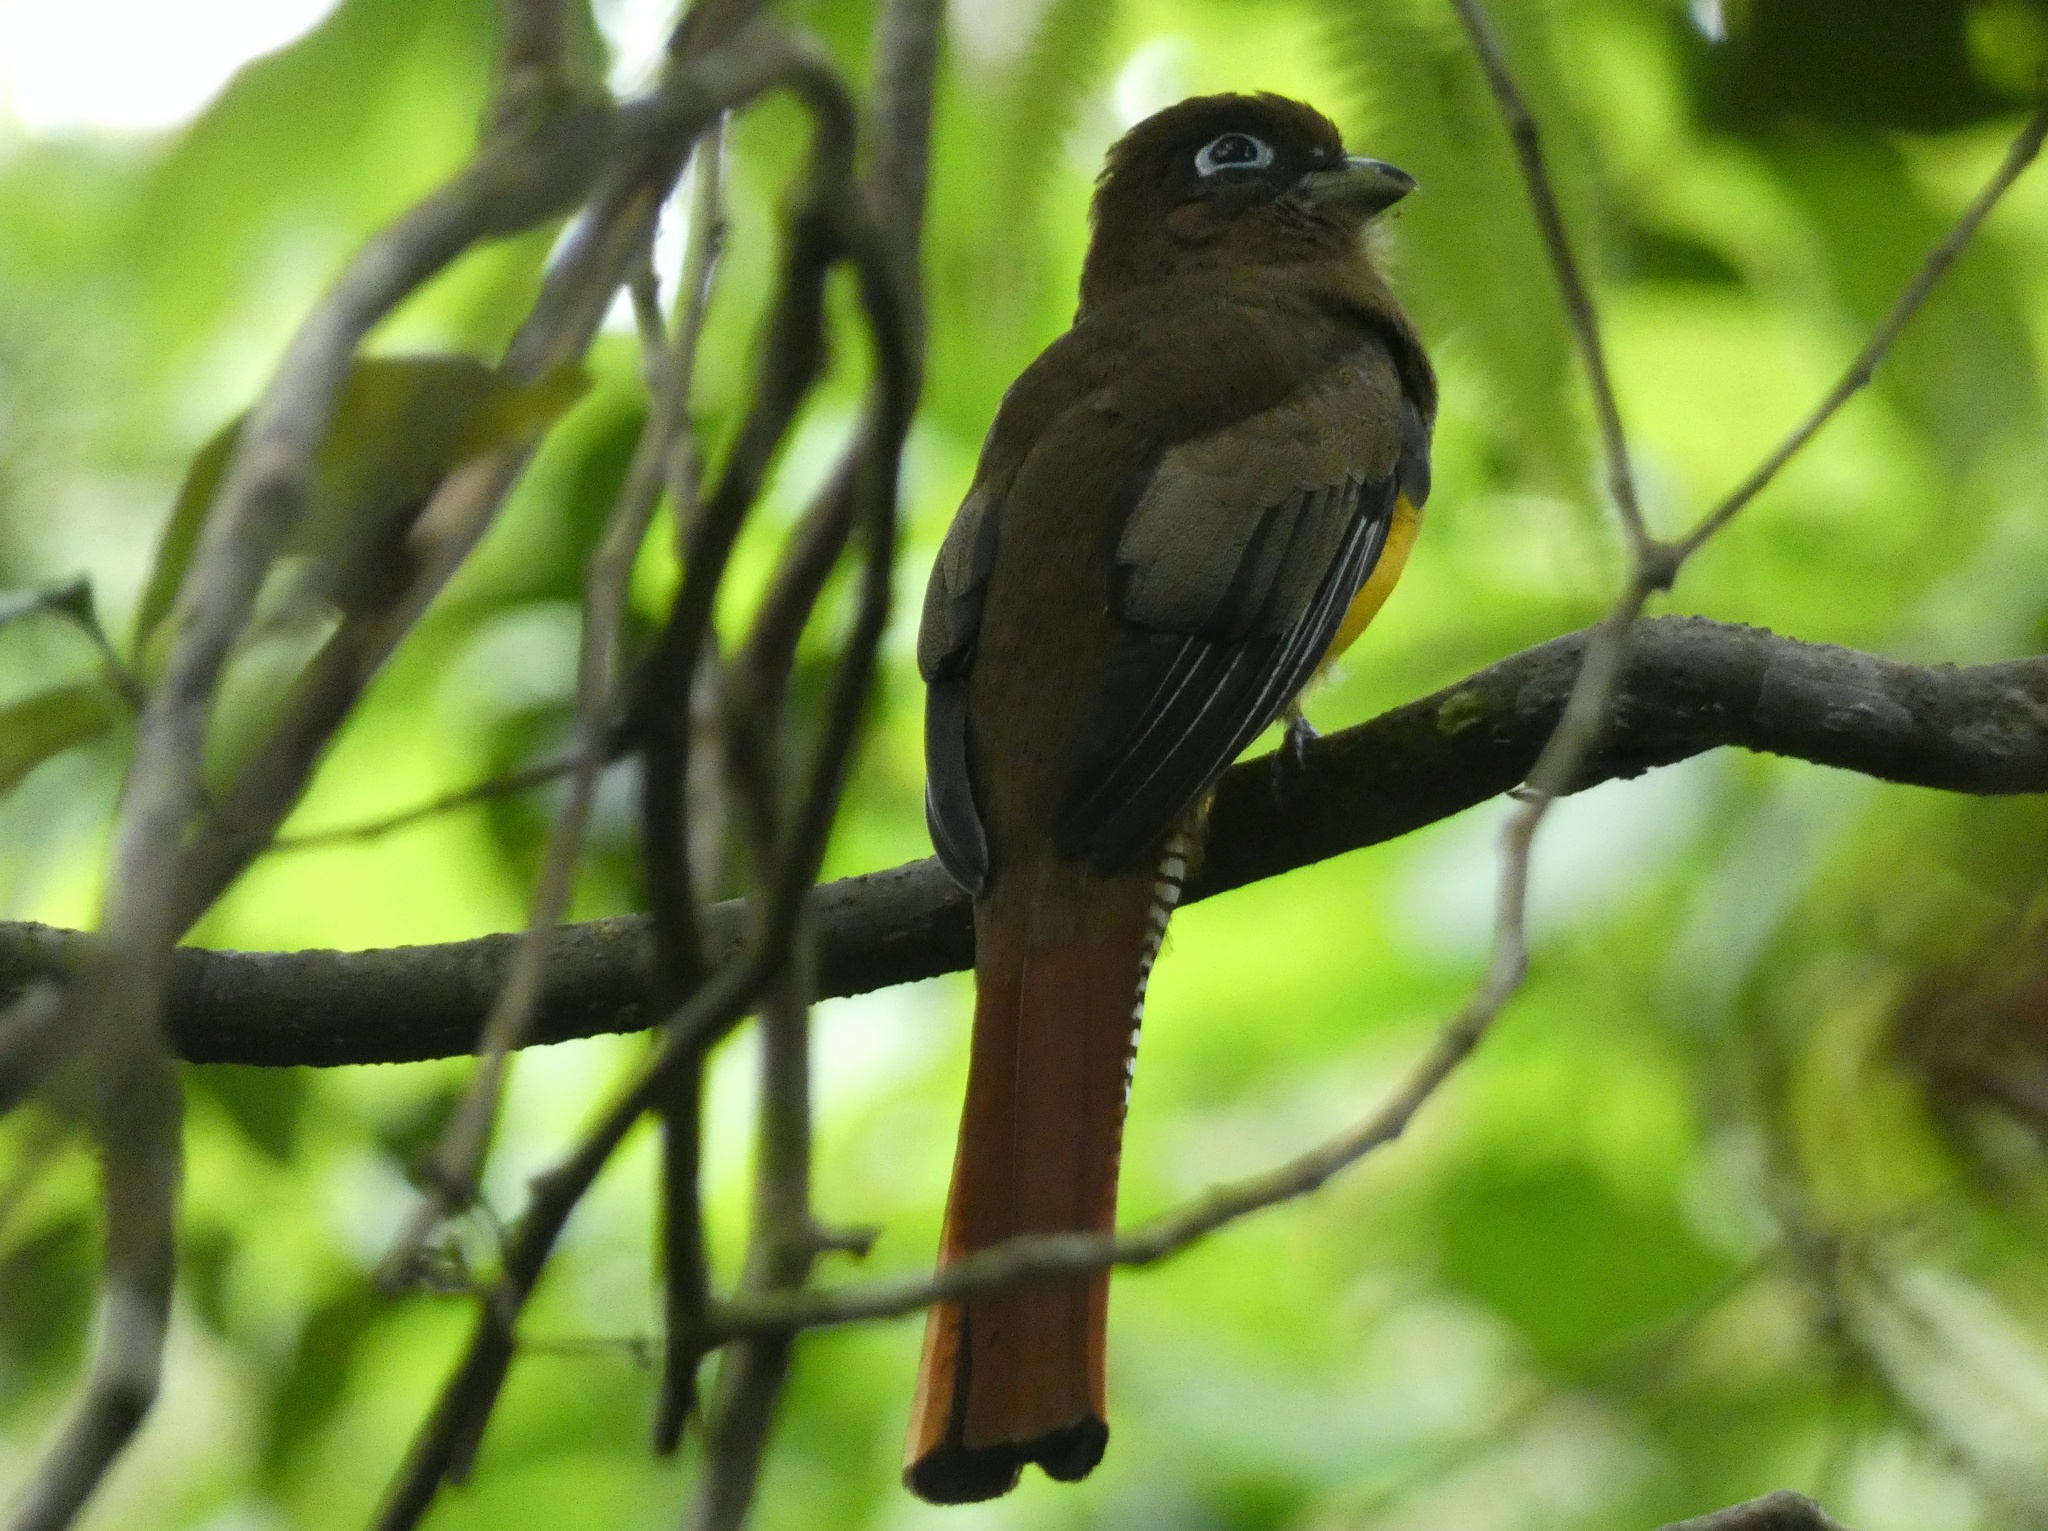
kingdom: Animalia
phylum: Chordata
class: Aves
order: Trogoniformes
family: Trogonidae
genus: Trogon
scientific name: Trogon rufus
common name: Black-throated trogon
